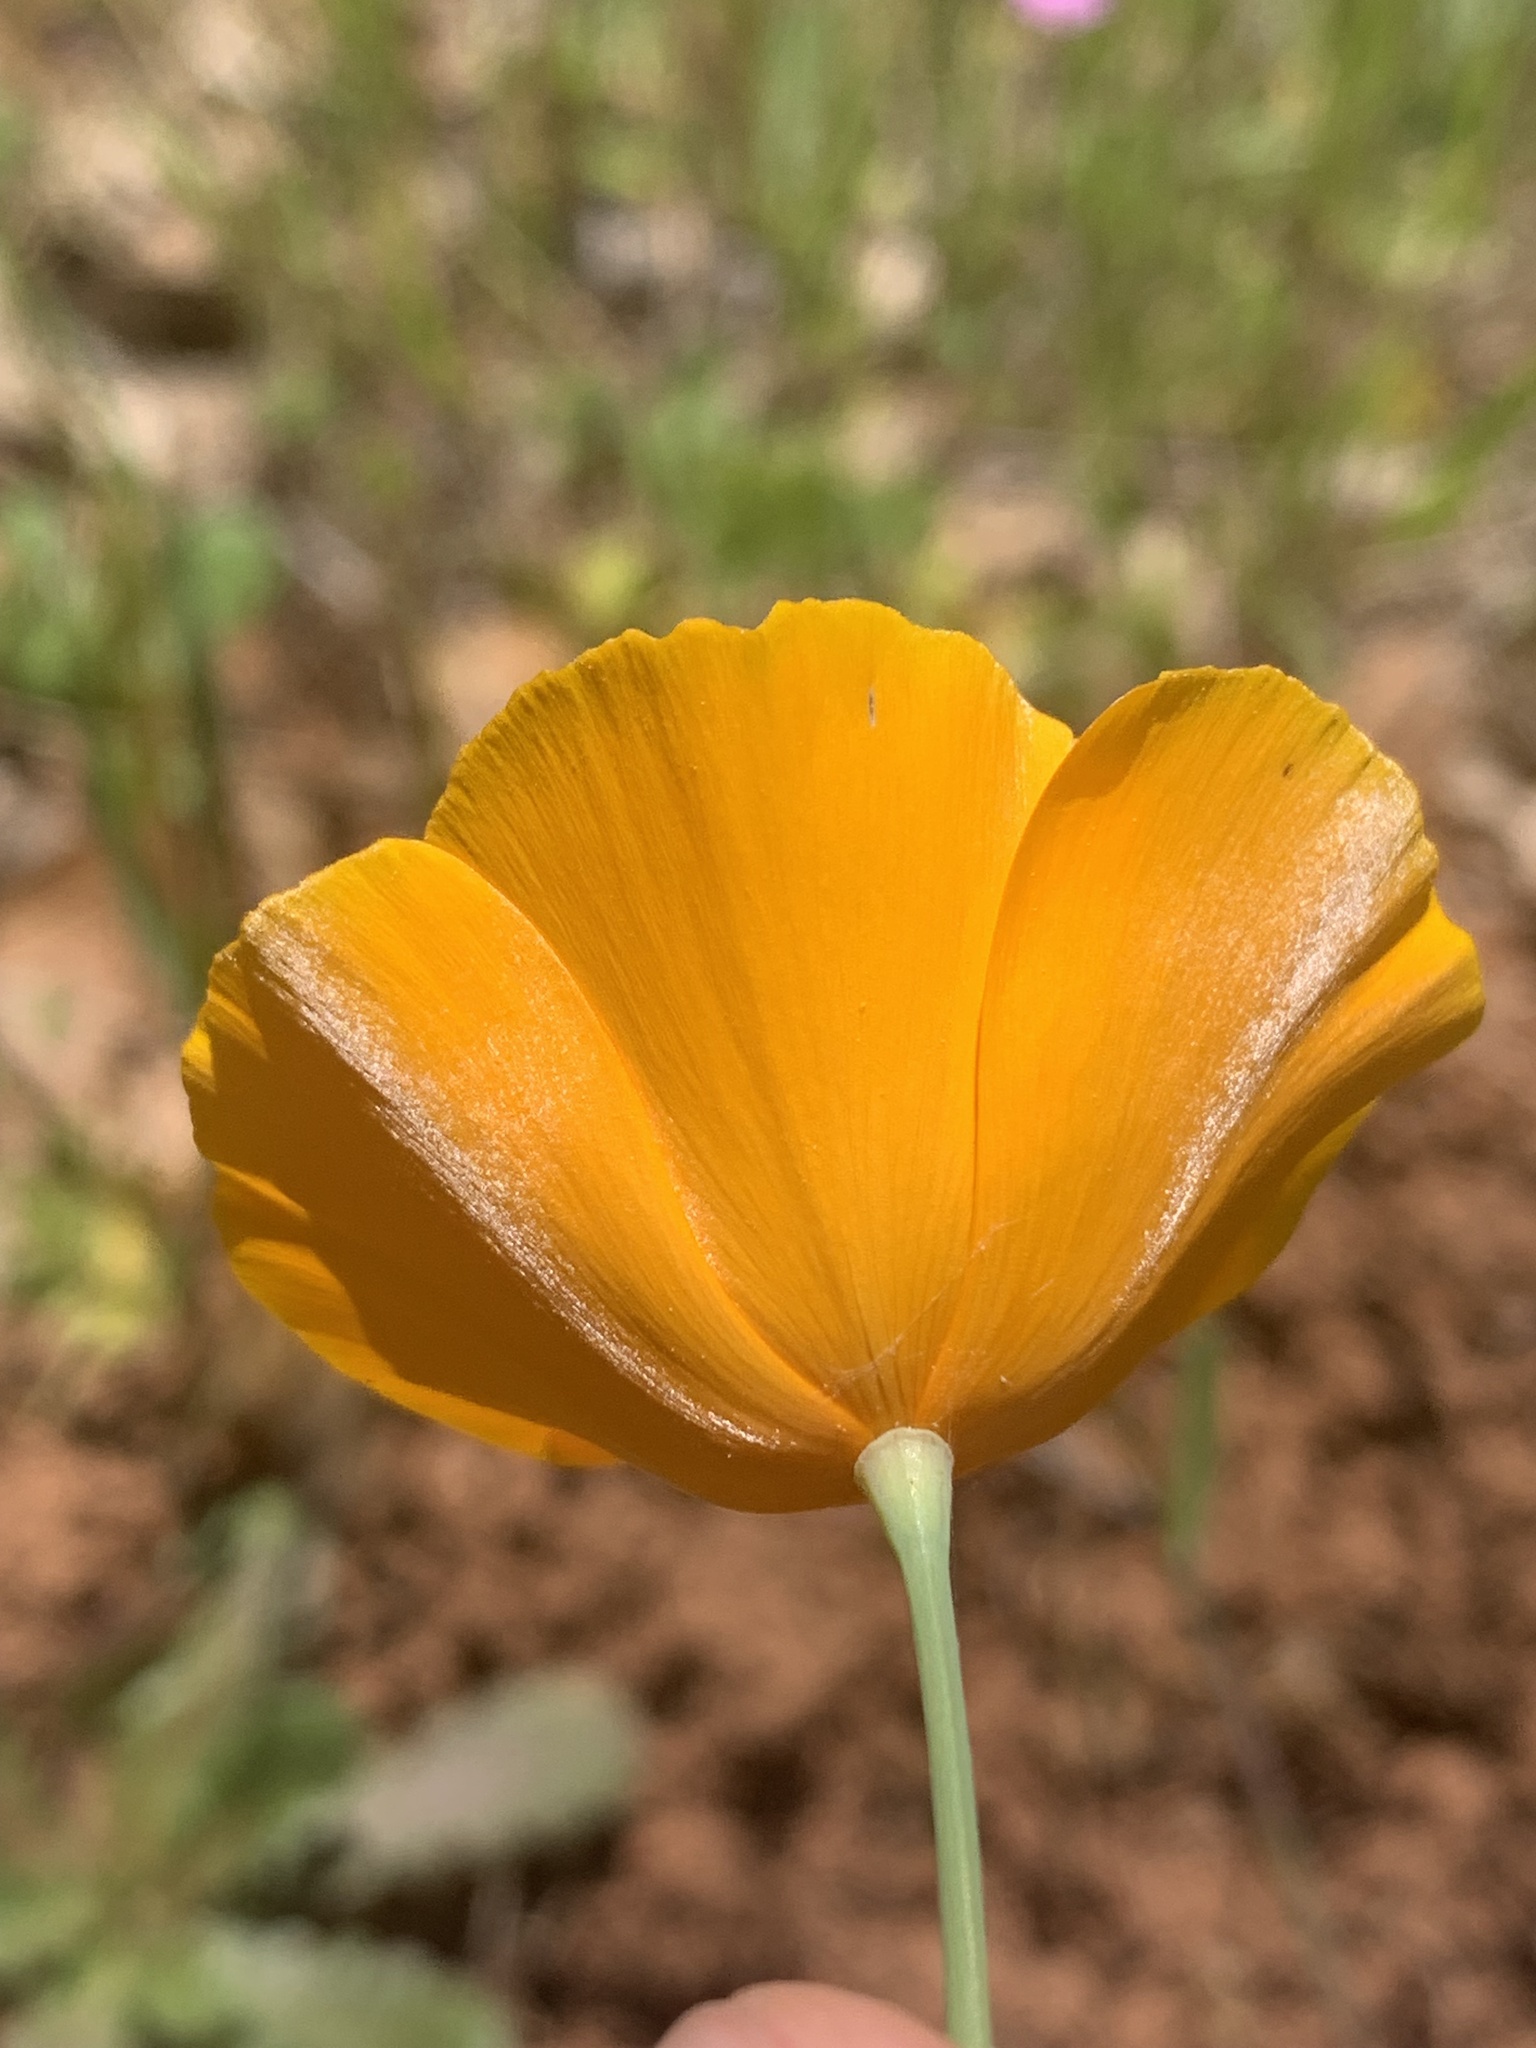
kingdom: Plantae
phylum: Tracheophyta
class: Magnoliopsida
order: Ranunculales
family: Papaveraceae
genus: Eschscholzia
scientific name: Eschscholzia caespitosa
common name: Tufted california-poppy
